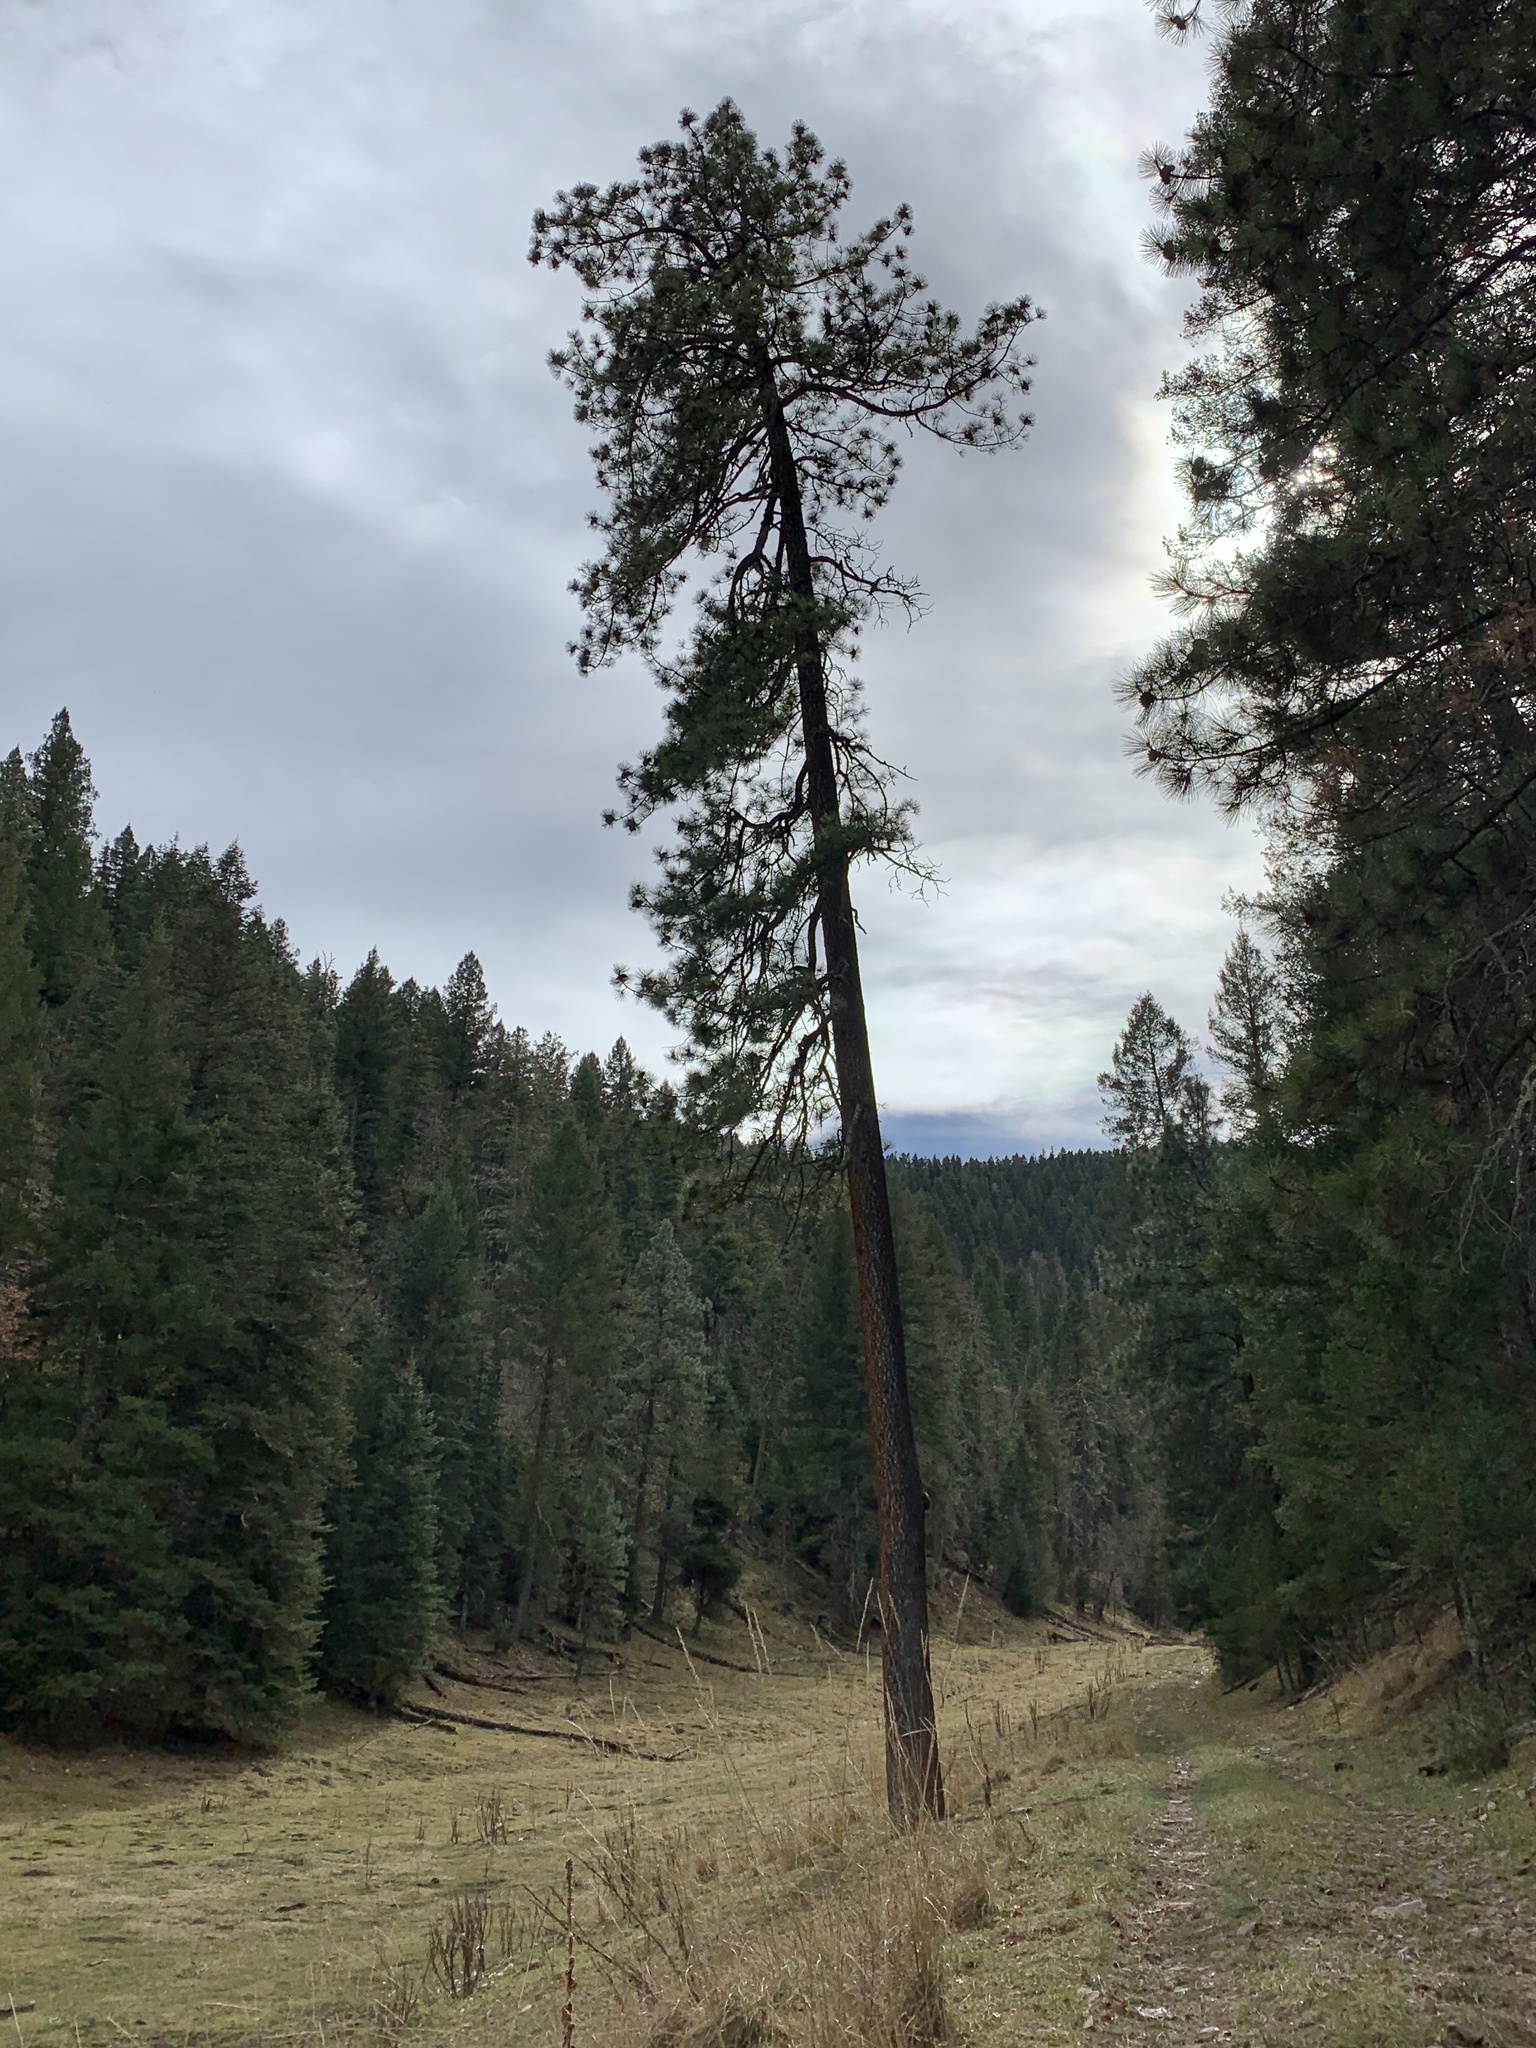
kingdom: Plantae
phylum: Tracheophyta
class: Pinopsida
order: Pinales
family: Pinaceae
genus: Pinus
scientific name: Pinus ponderosa
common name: Western yellow-pine
